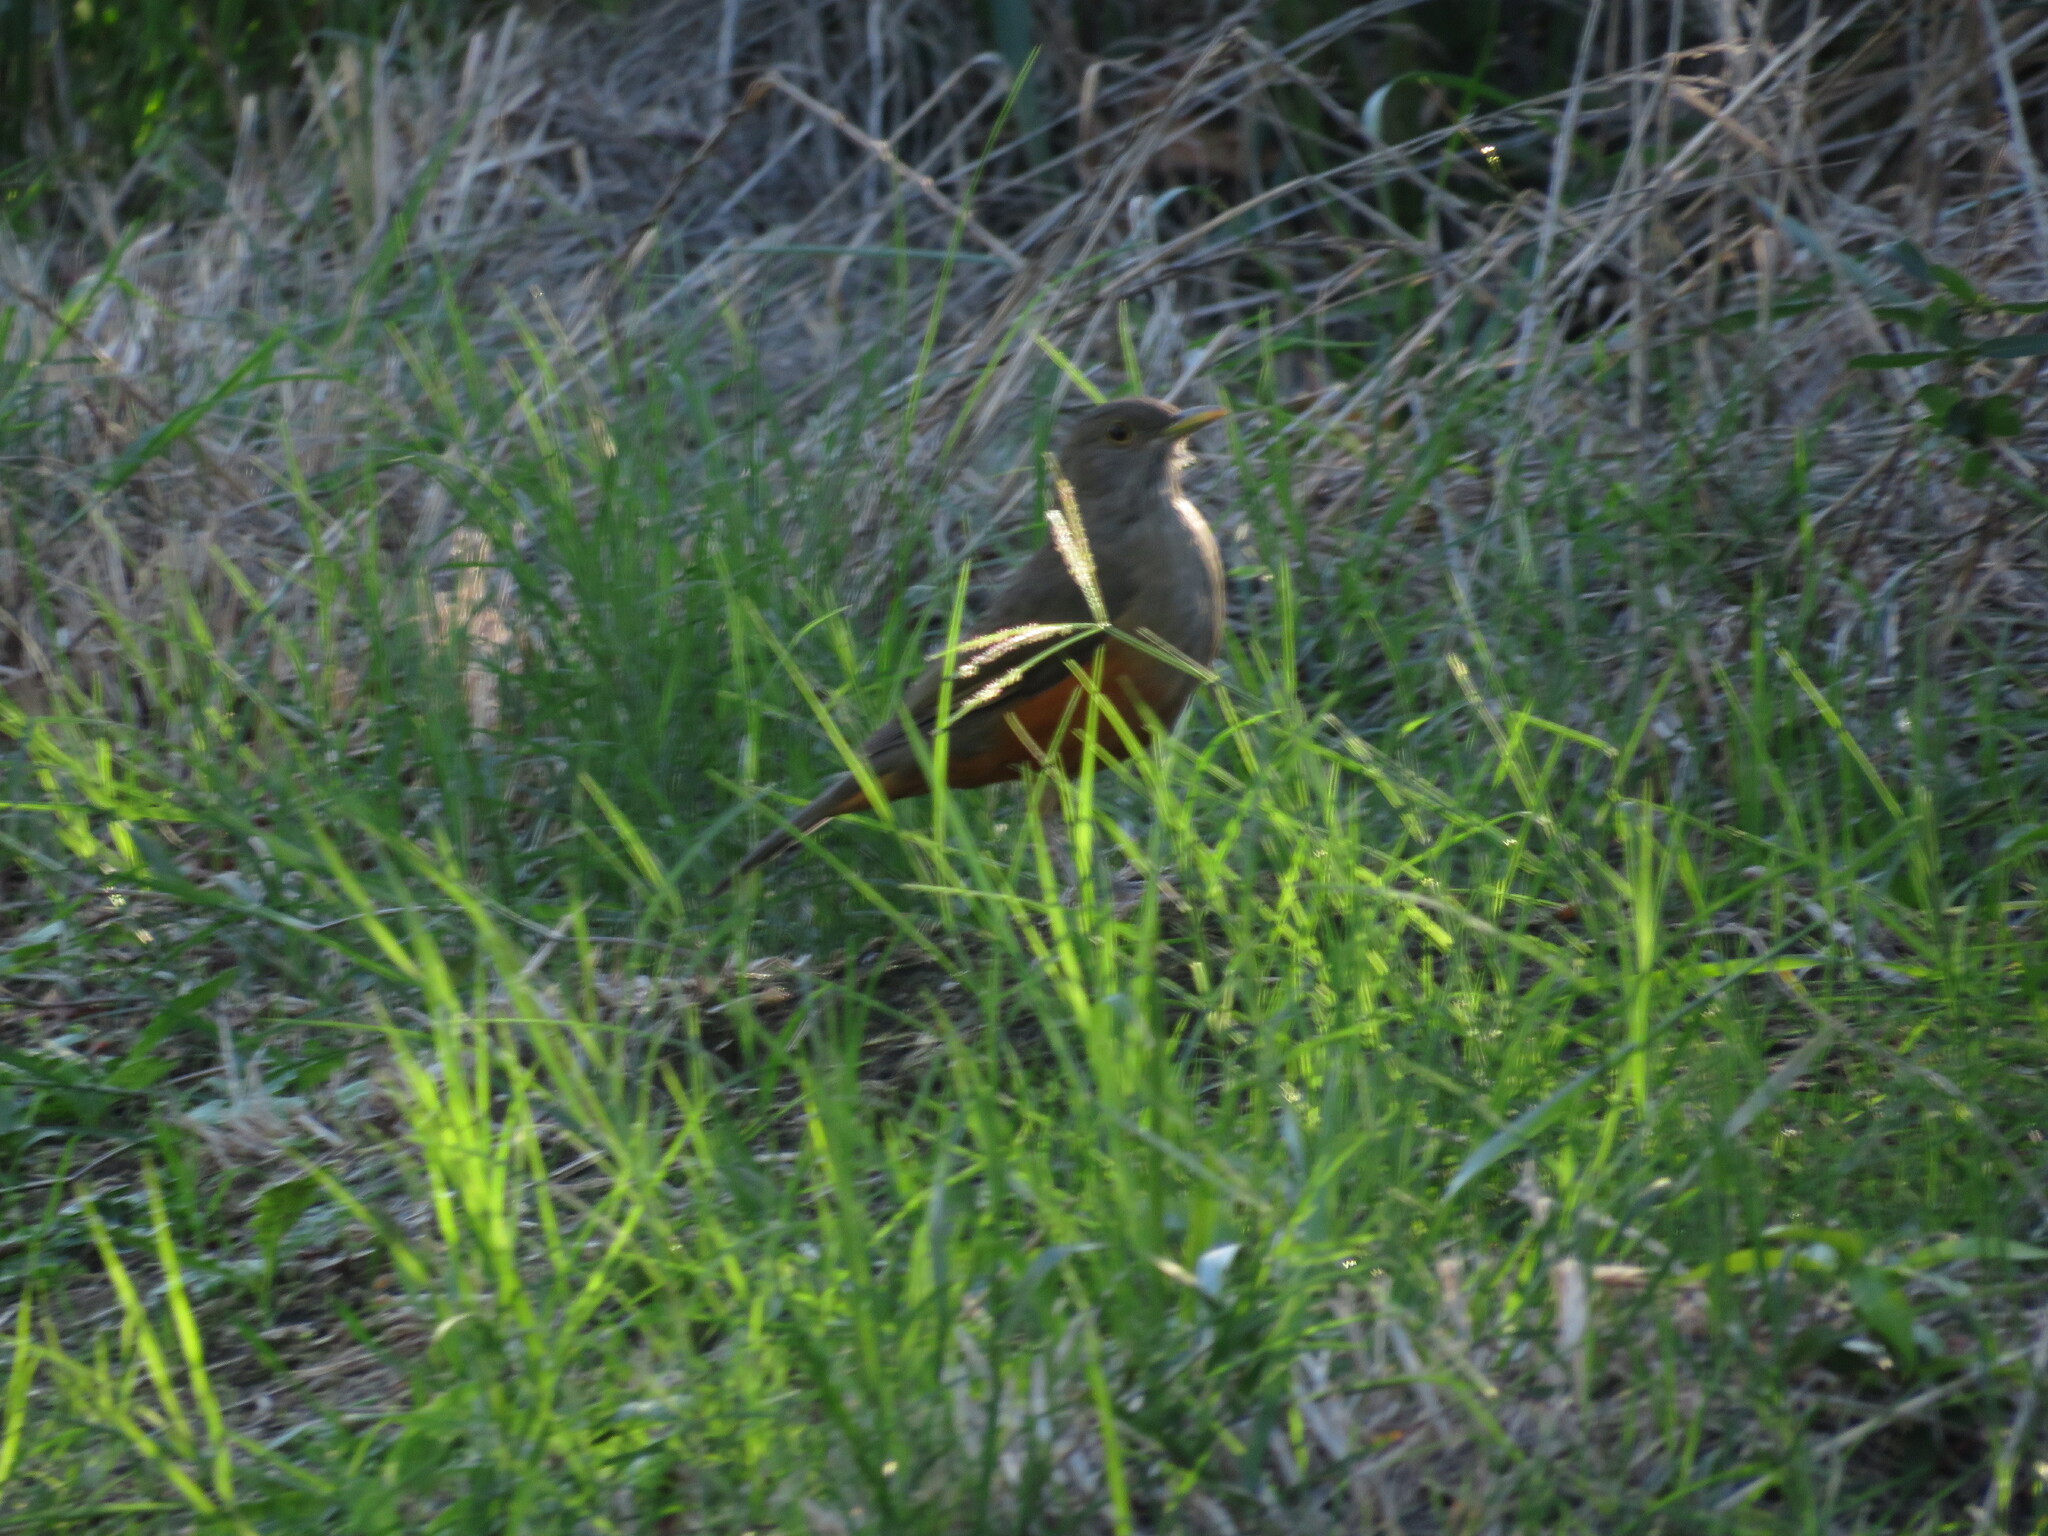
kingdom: Animalia
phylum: Chordata
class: Aves
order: Passeriformes
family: Turdidae
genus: Turdus
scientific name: Turdus rufiventris
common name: Rufous-bellied thrush
